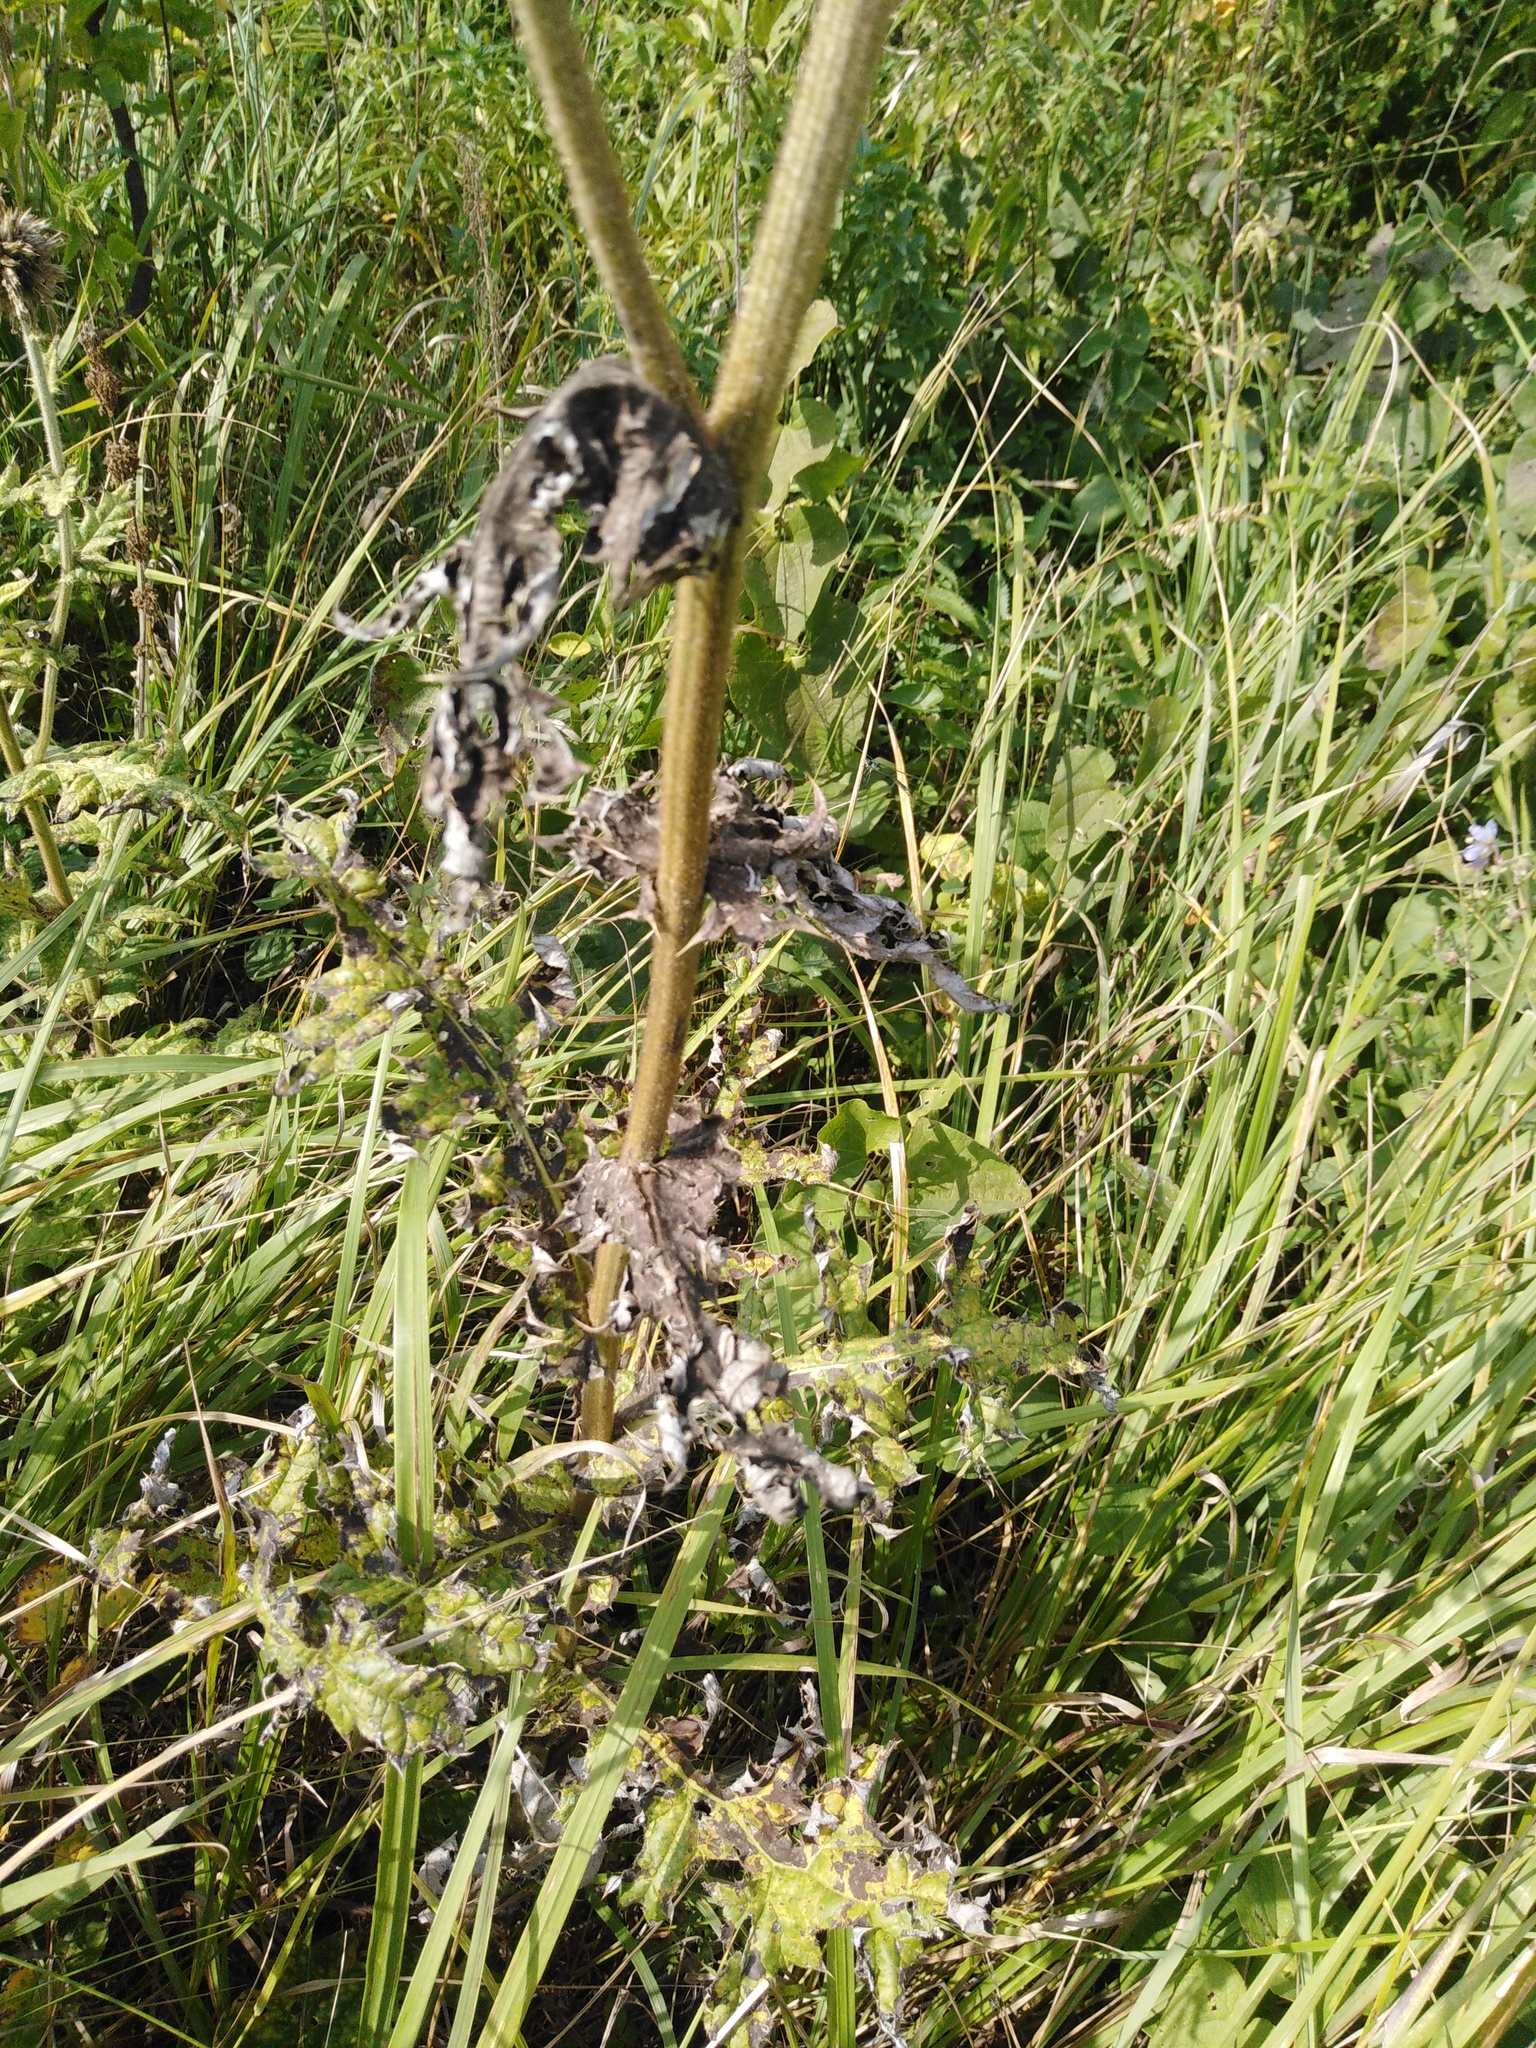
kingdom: Plantae
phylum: Tracheophyta
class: Magnoliopsida
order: Asterales
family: Asteraceae
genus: Echinops
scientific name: Echinops sphaerocephalus
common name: Glandular globe-thistle
